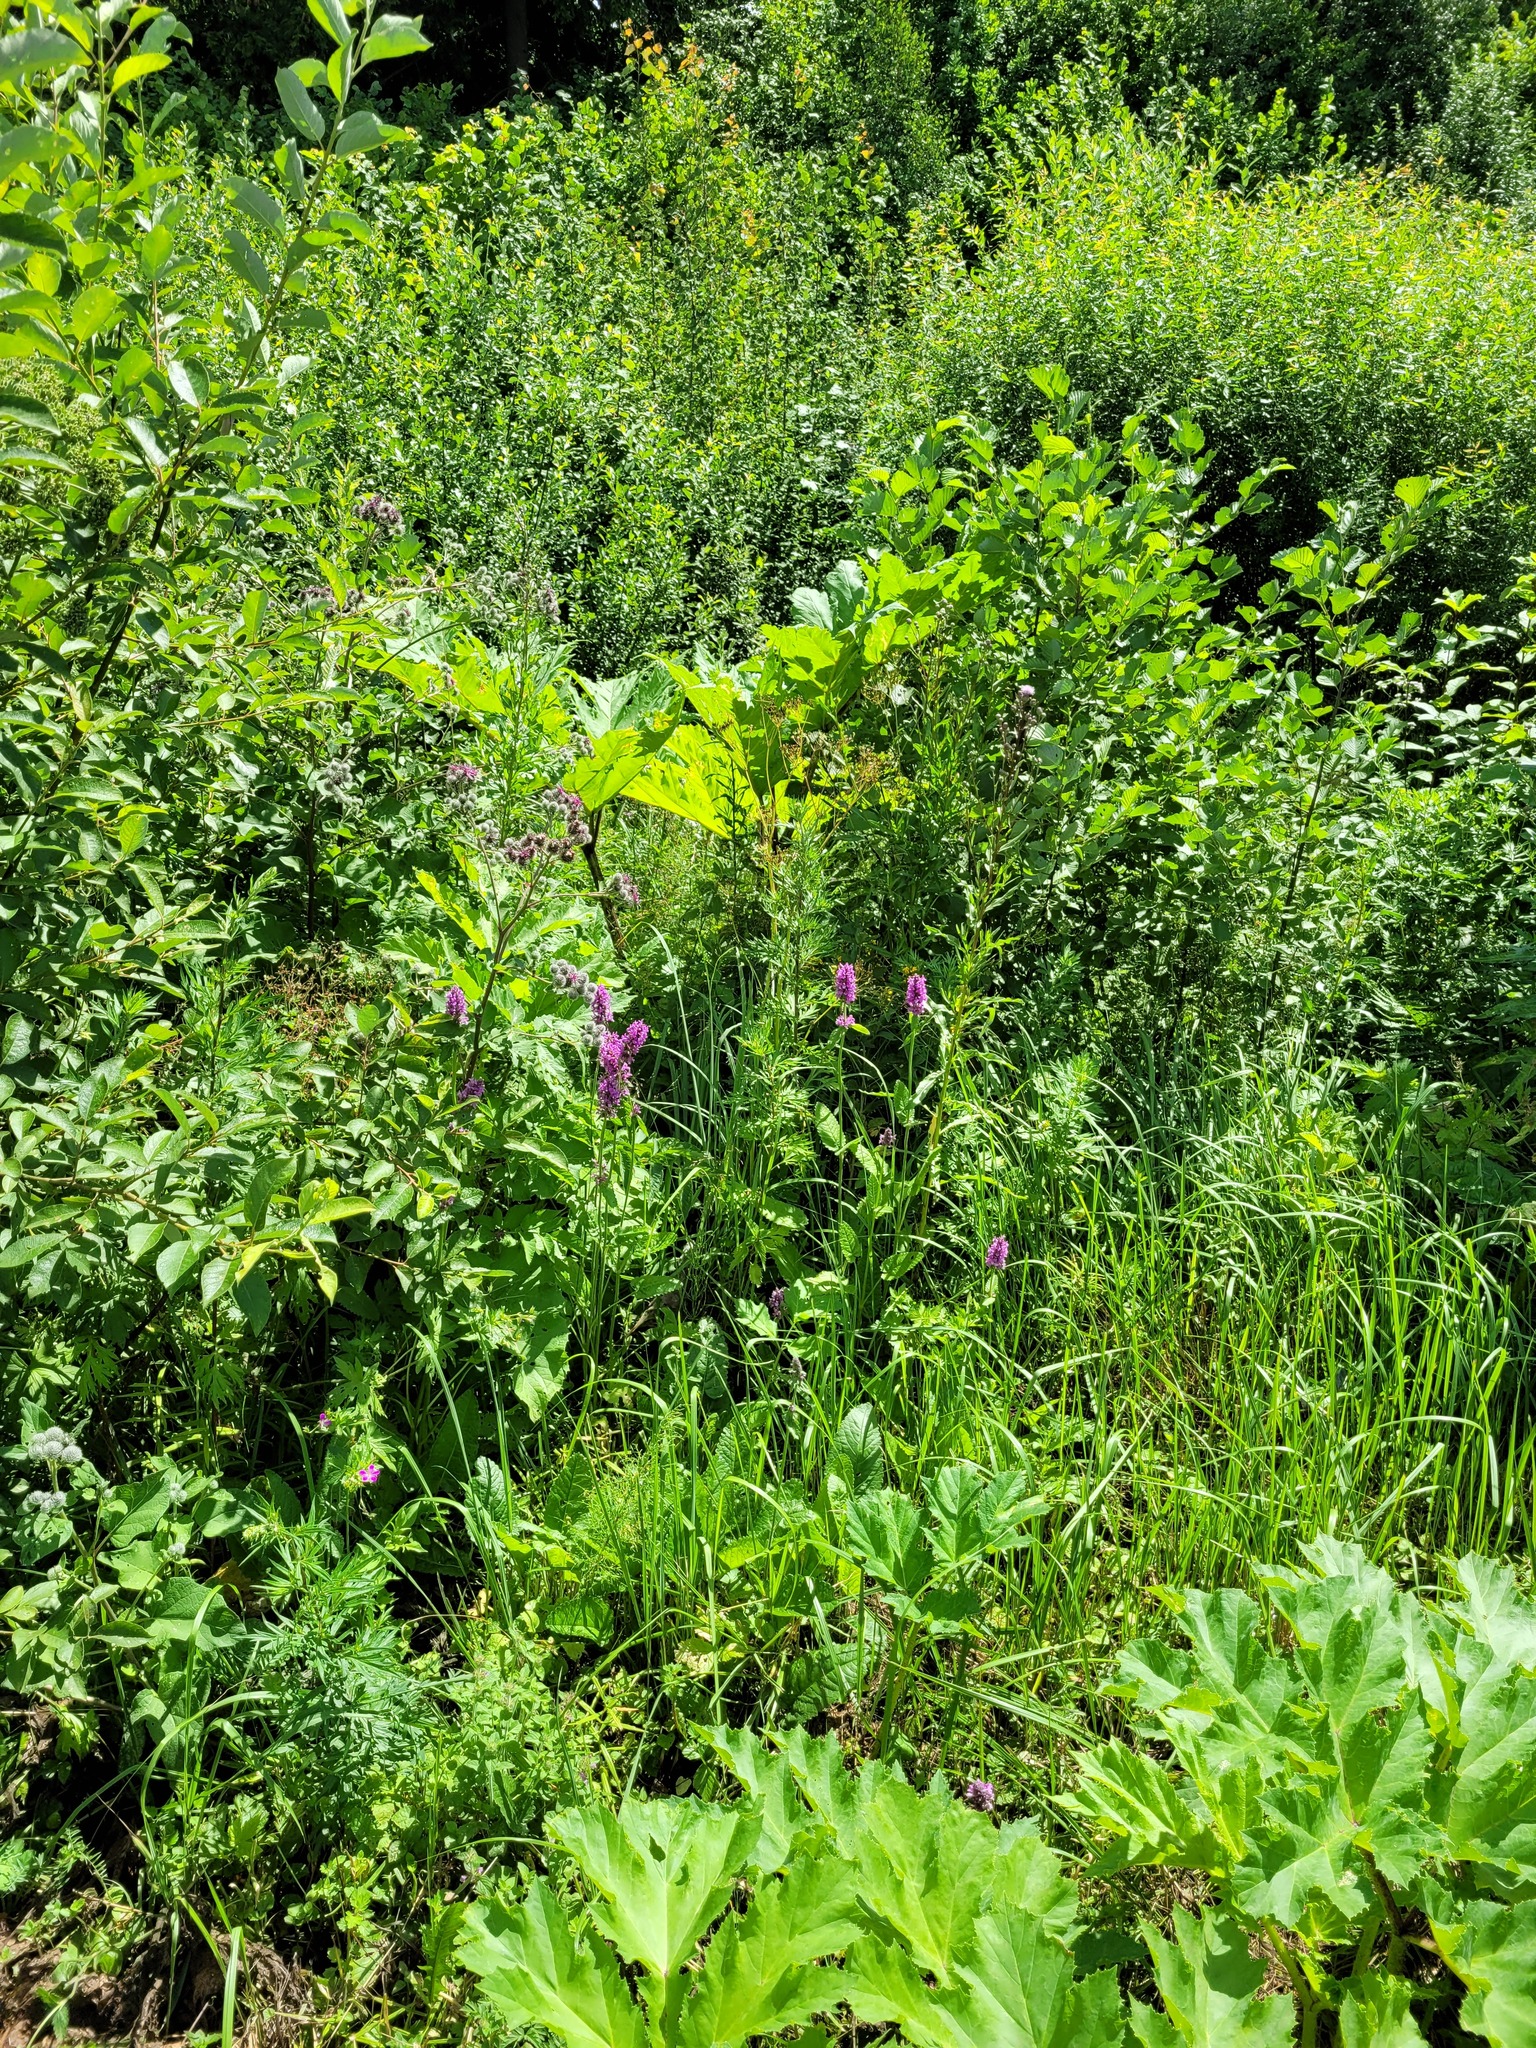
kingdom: Plantae
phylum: Tracheophyta
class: Magnoliopsida
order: Lamiales
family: Lamiaceae
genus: Betonica
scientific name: Betonica officinalis
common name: Bishop's-wort
